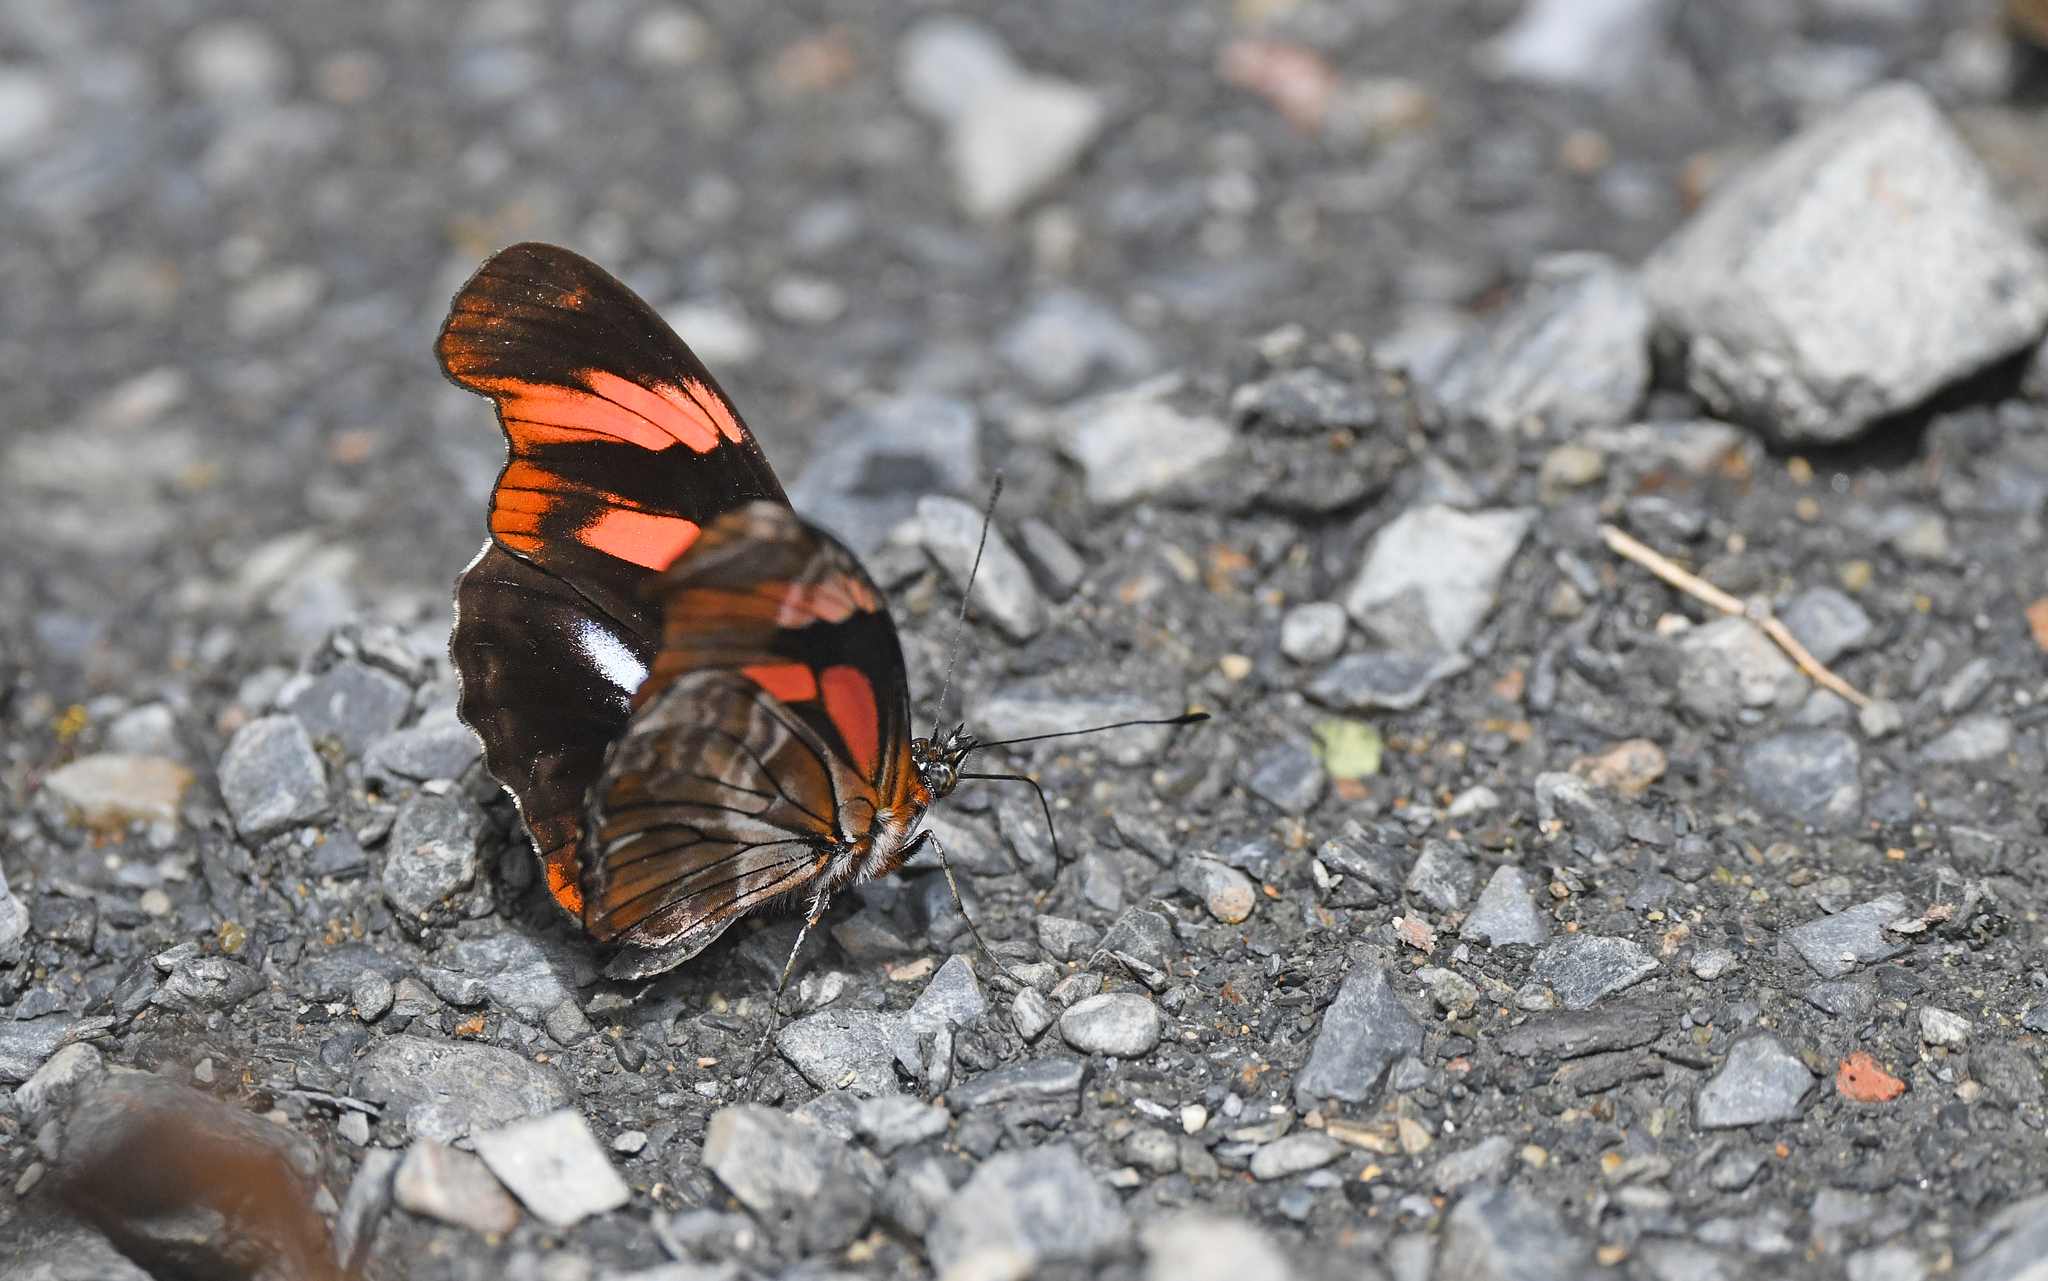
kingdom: Animalia
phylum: Arthropoda
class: Insecta
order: Lepidoptera
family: Nymphalidae
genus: Podotricha
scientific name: Podotricha telesiphe
